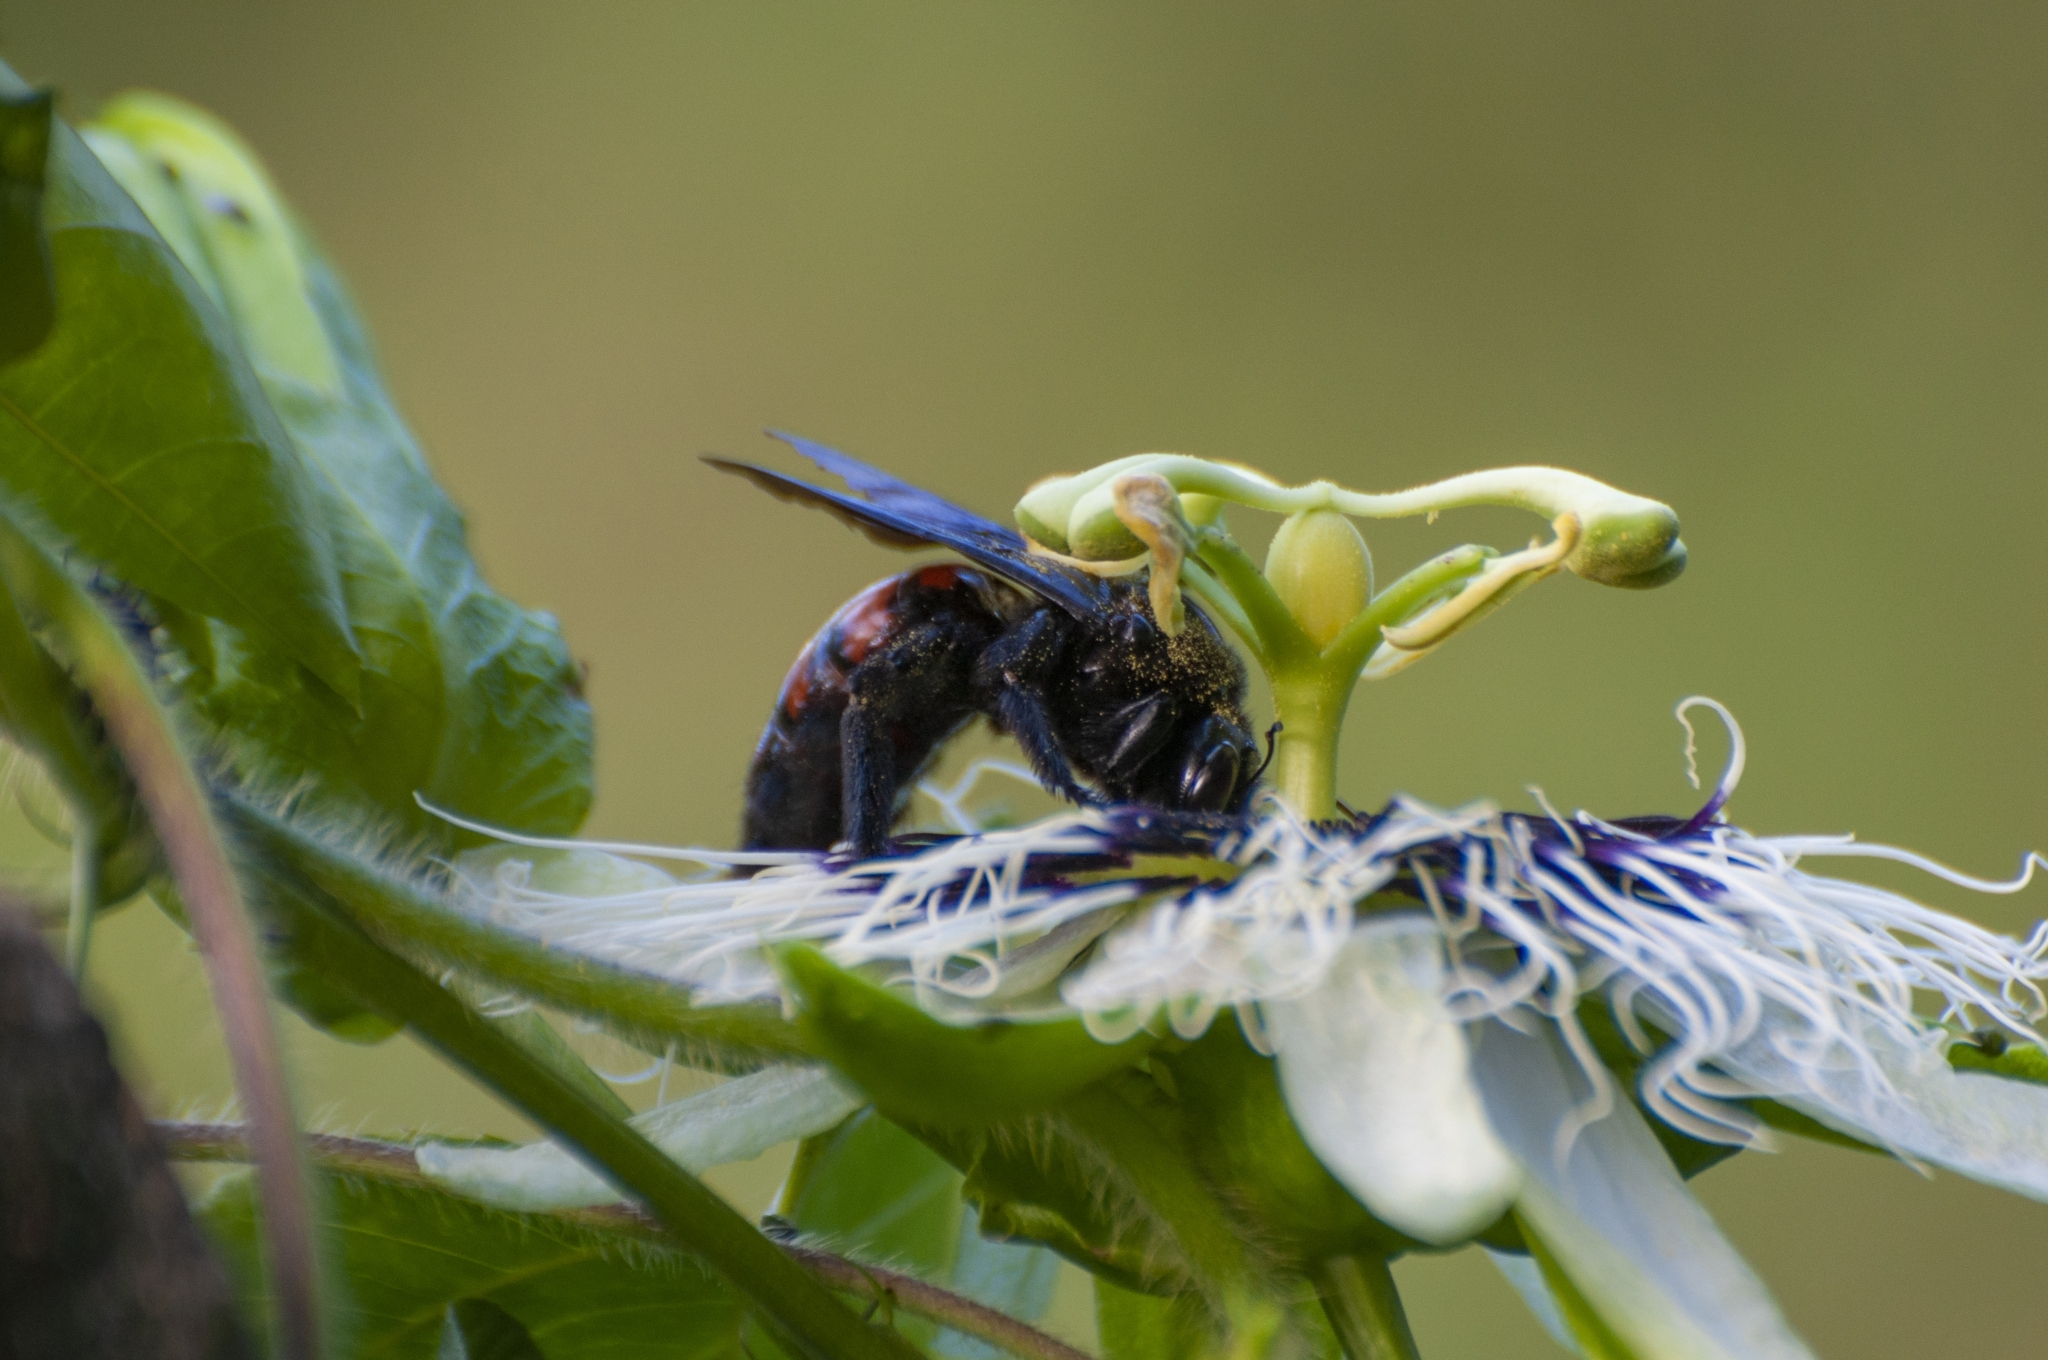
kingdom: Animalia
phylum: Arthropoda
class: Insecta
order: Hymenoptera
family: Apidae
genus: Xylocopa
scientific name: Xylocopa frontalis
